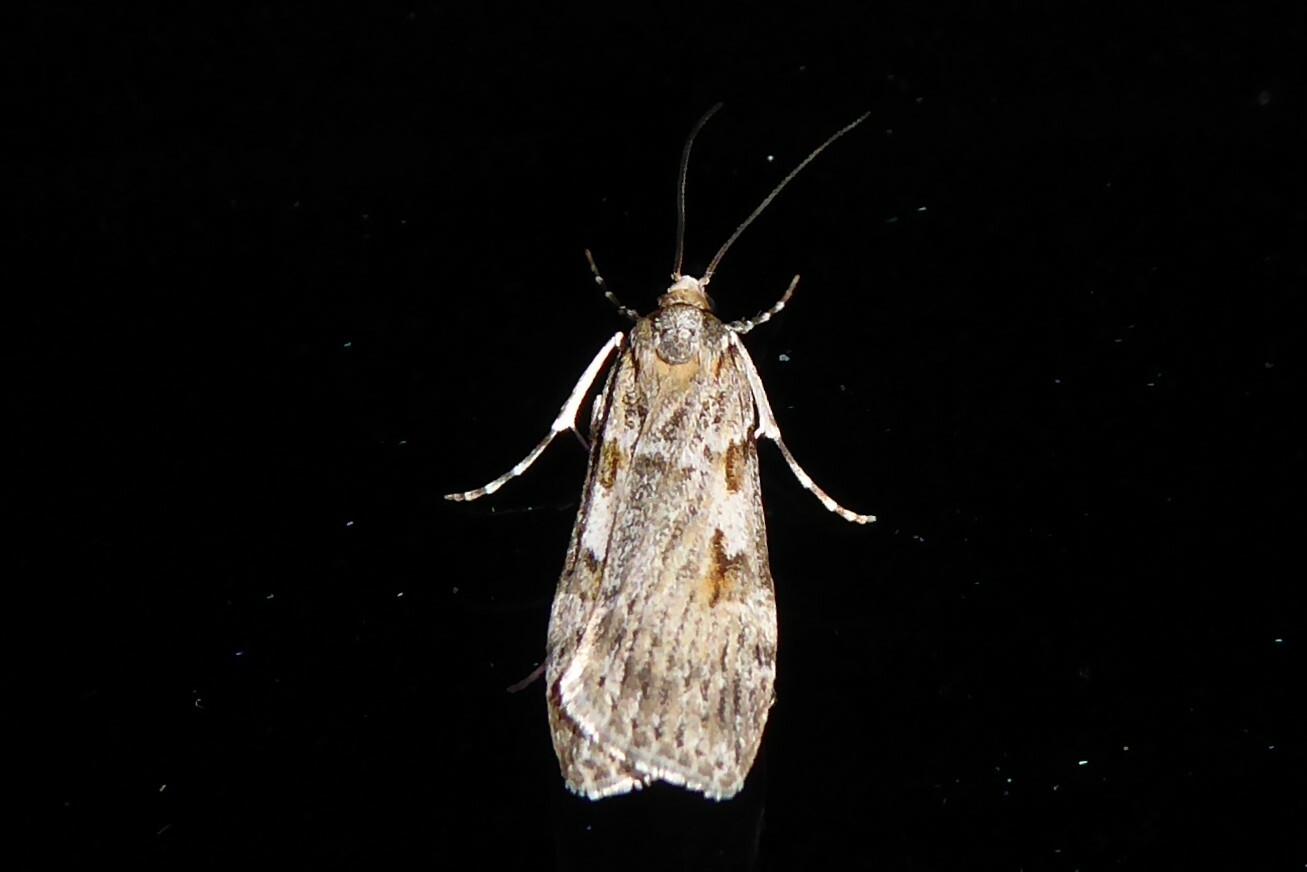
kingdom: Animalia
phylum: Arthropoda
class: Insecta
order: Lepidoptera
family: Crambidae
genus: Scoparia
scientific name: Scoparia halopis
